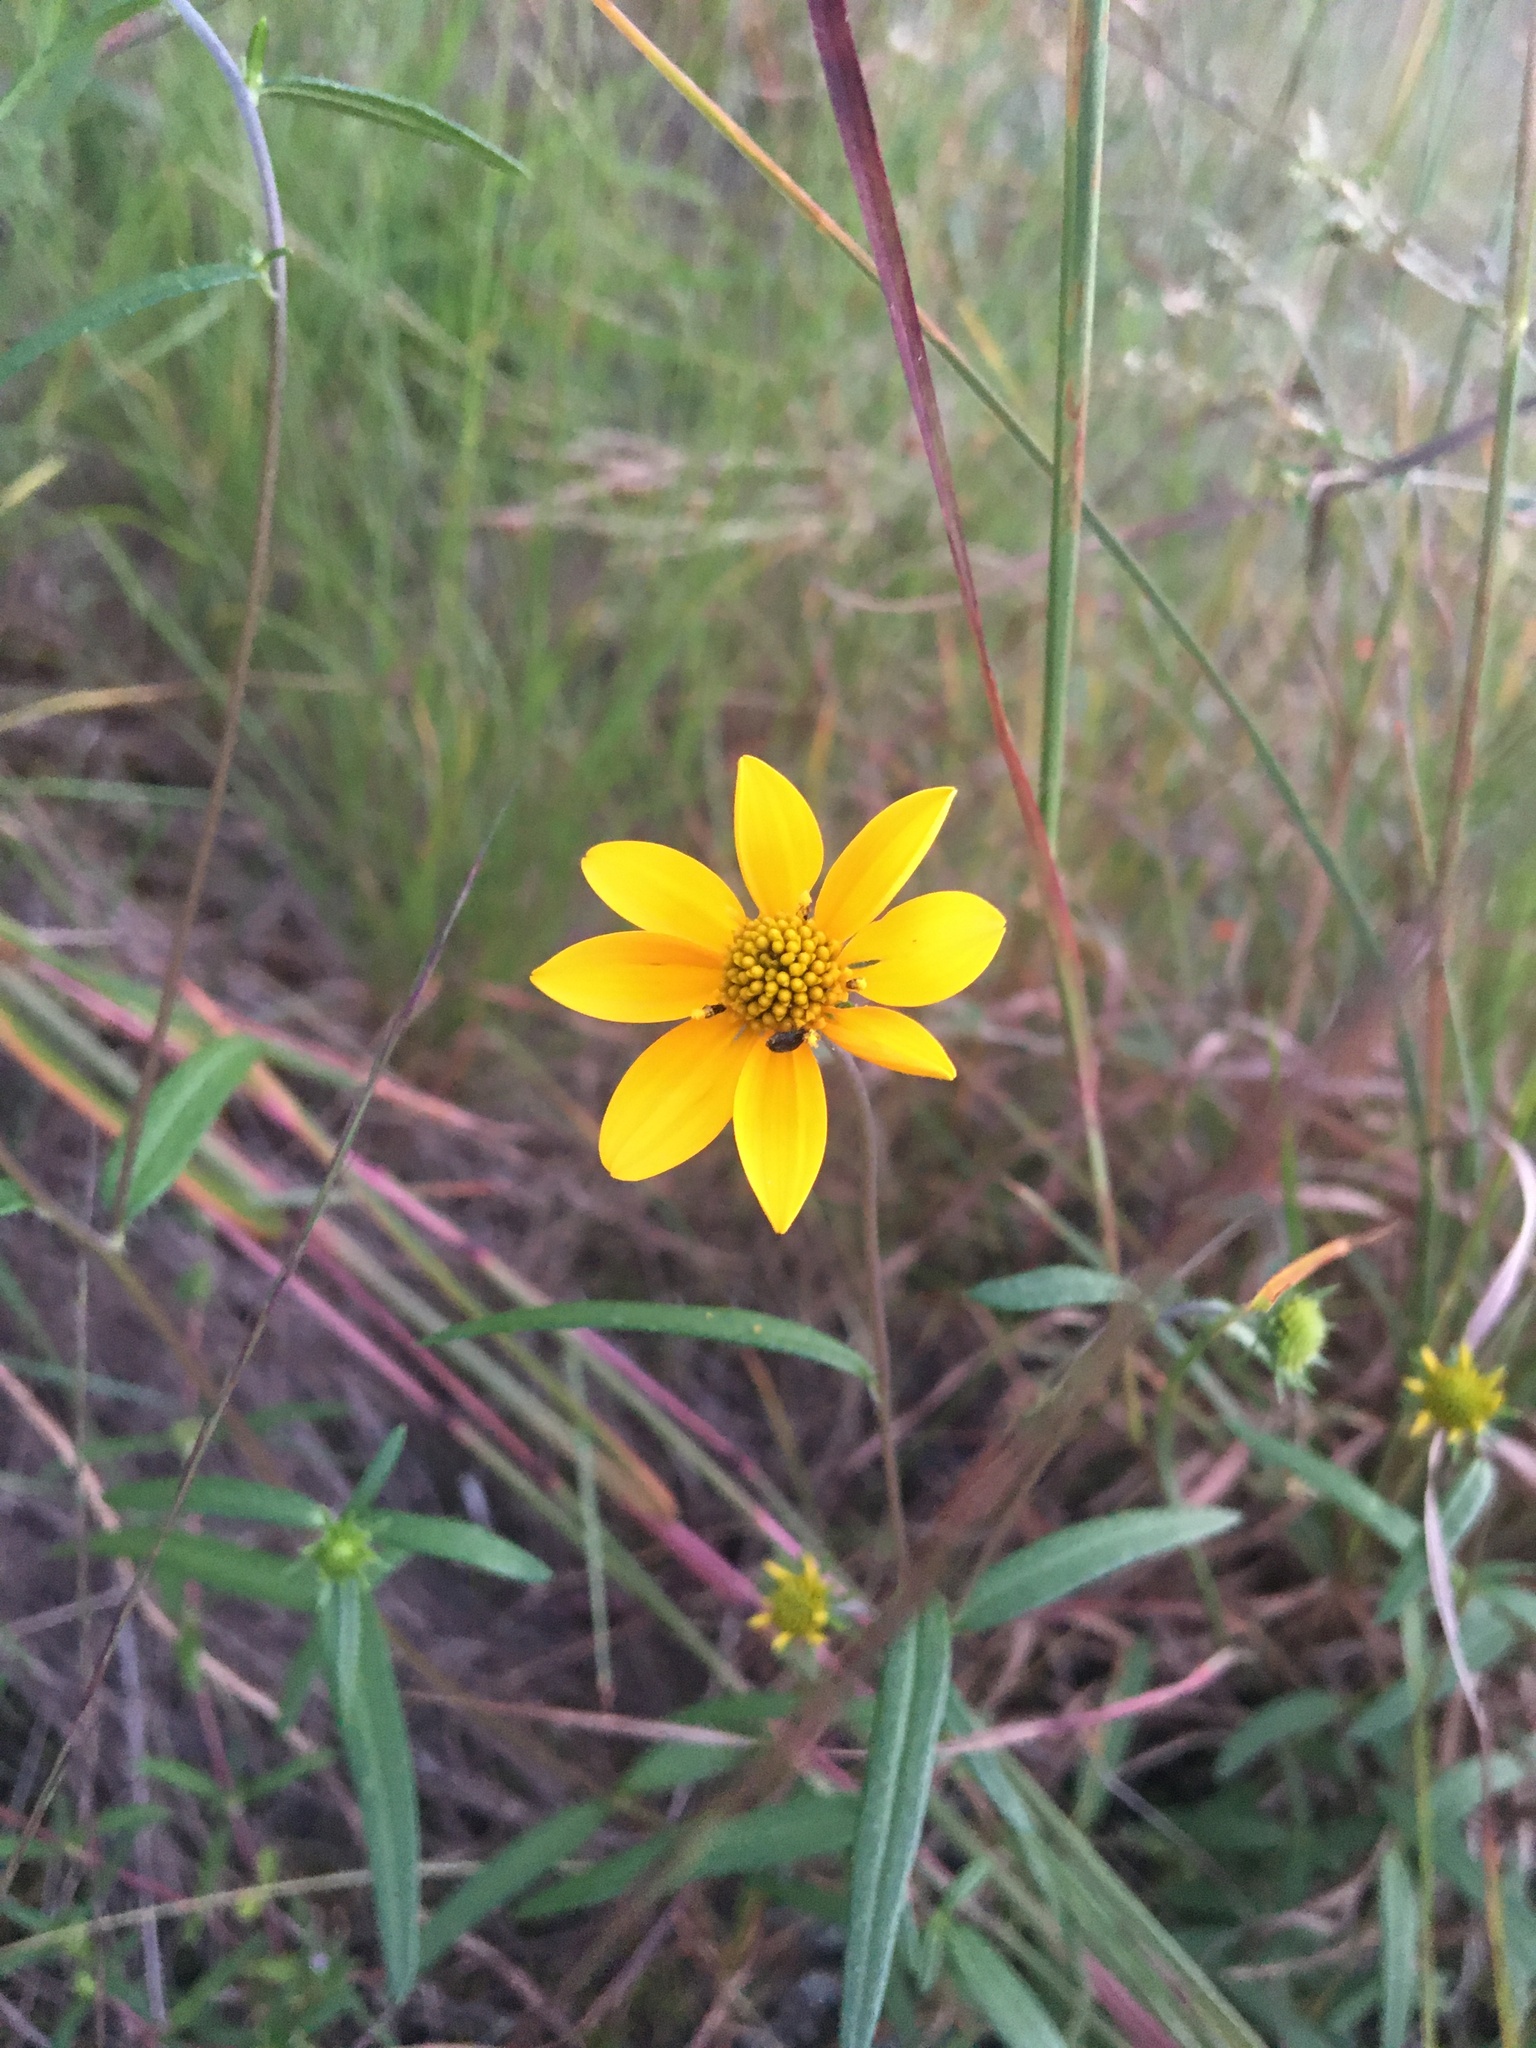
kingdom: Plantae
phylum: Tracheophyta
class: Magnoliopsida
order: Asterales
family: Asteraceae
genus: Helianthus
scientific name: Helianthus porteri
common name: Porter's sunflower
